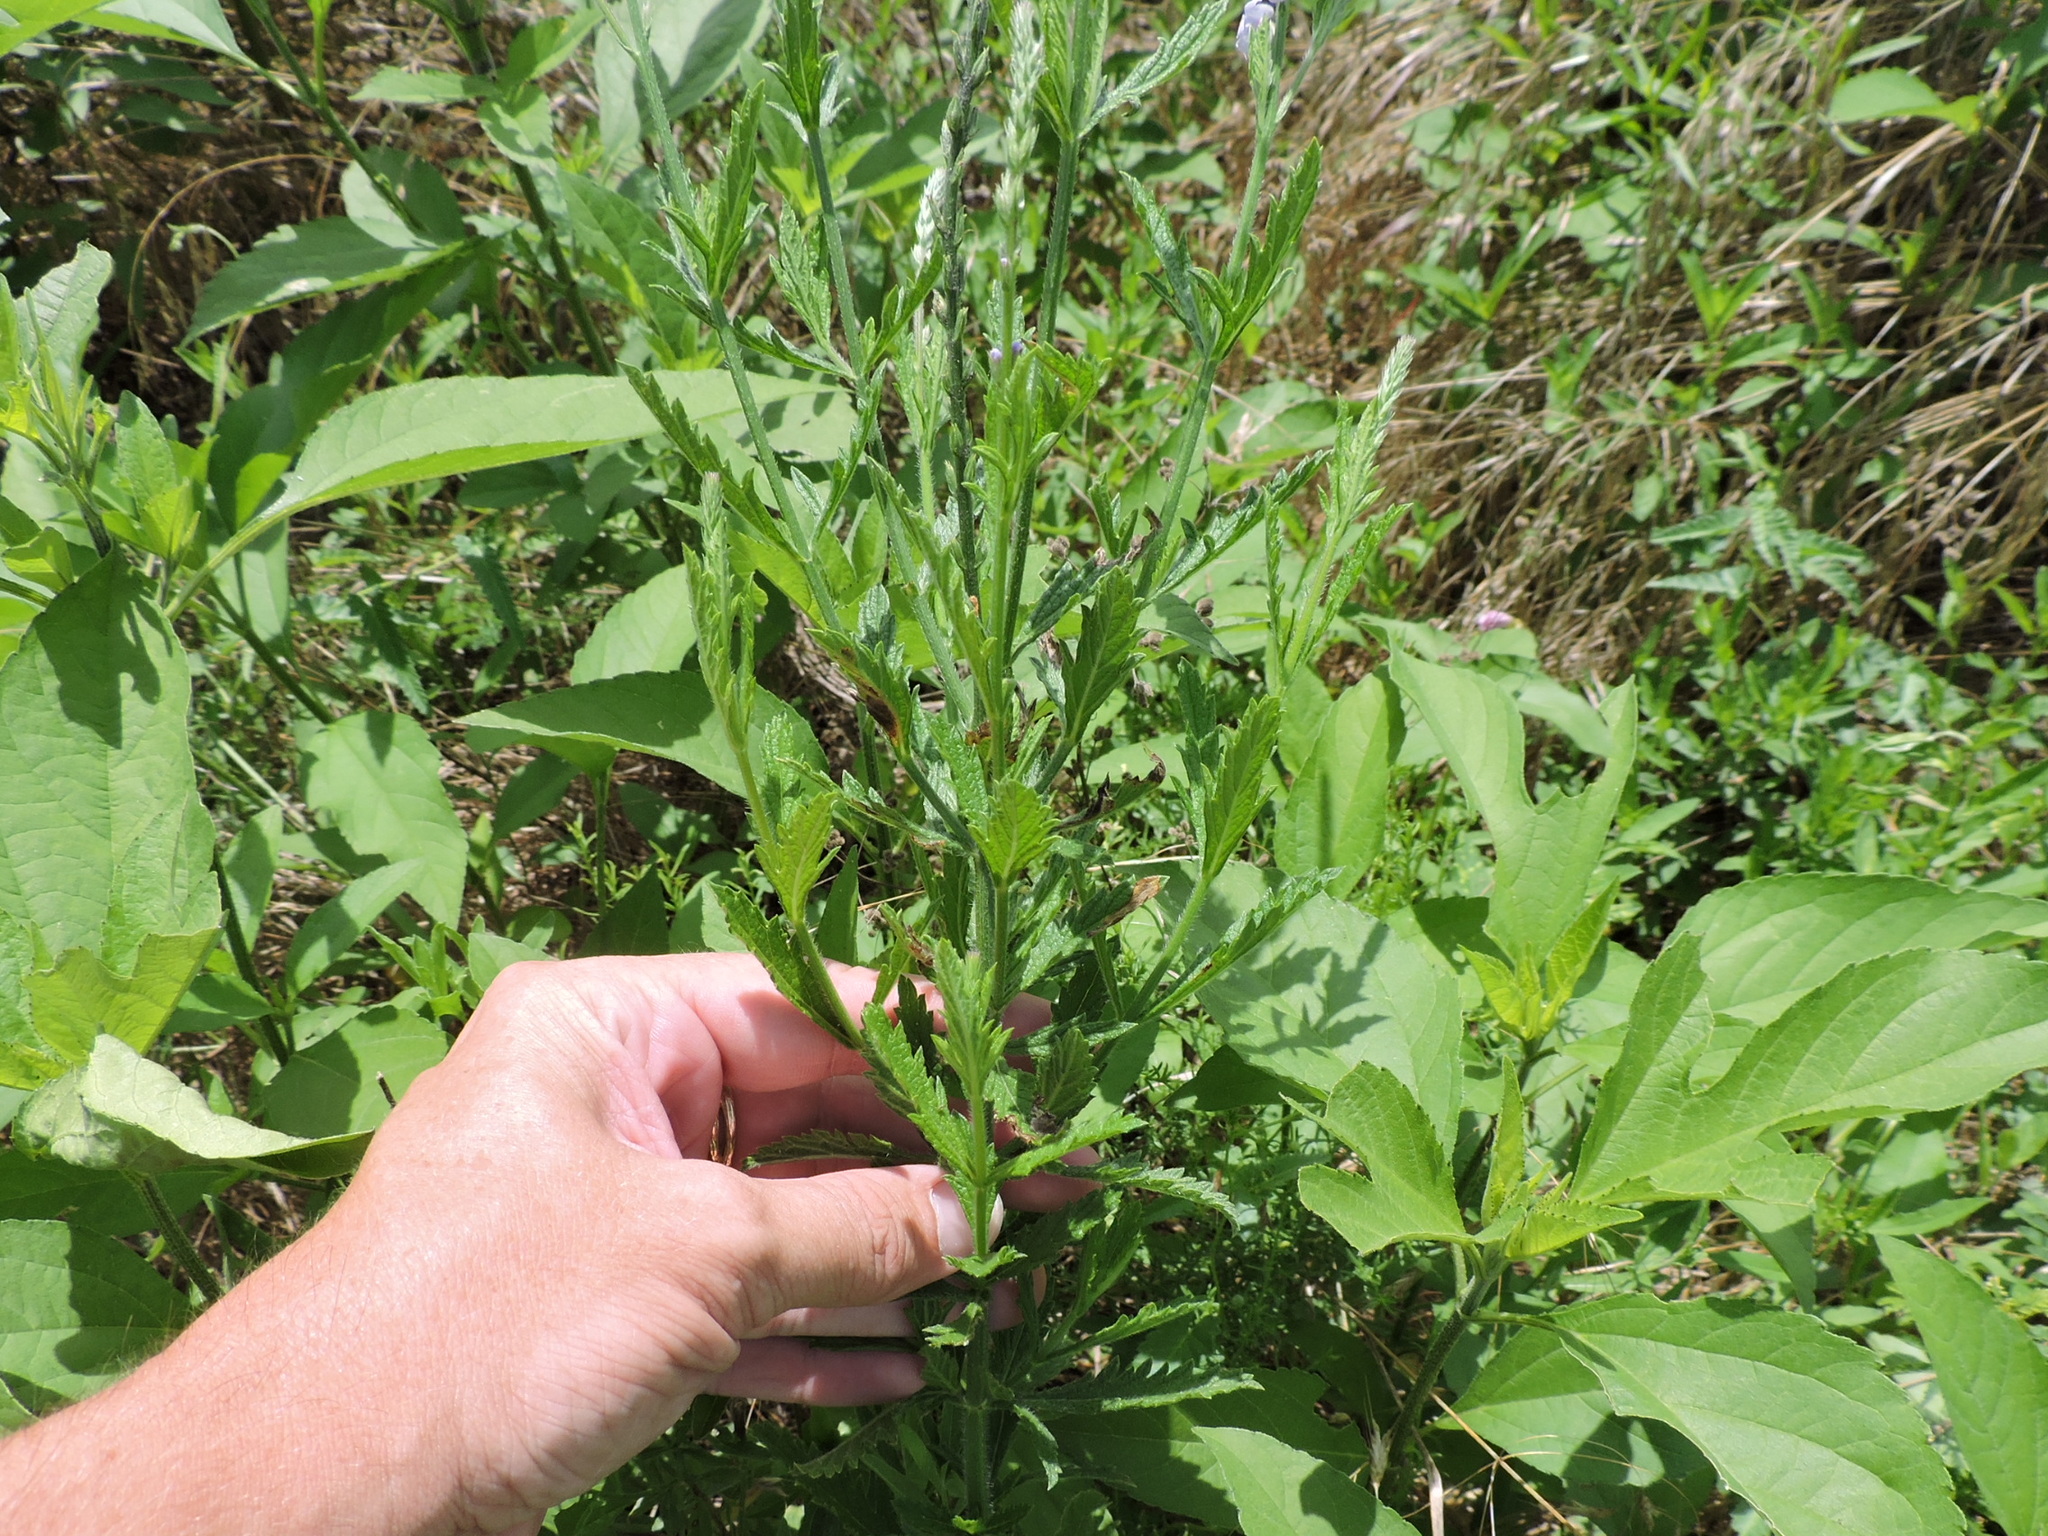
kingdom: Plantae
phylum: Tracheophyta
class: Magnoliopsida
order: Lamiales
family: Verbenaceae
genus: Verbena
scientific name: Verbena xutha
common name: Gulf vervain
